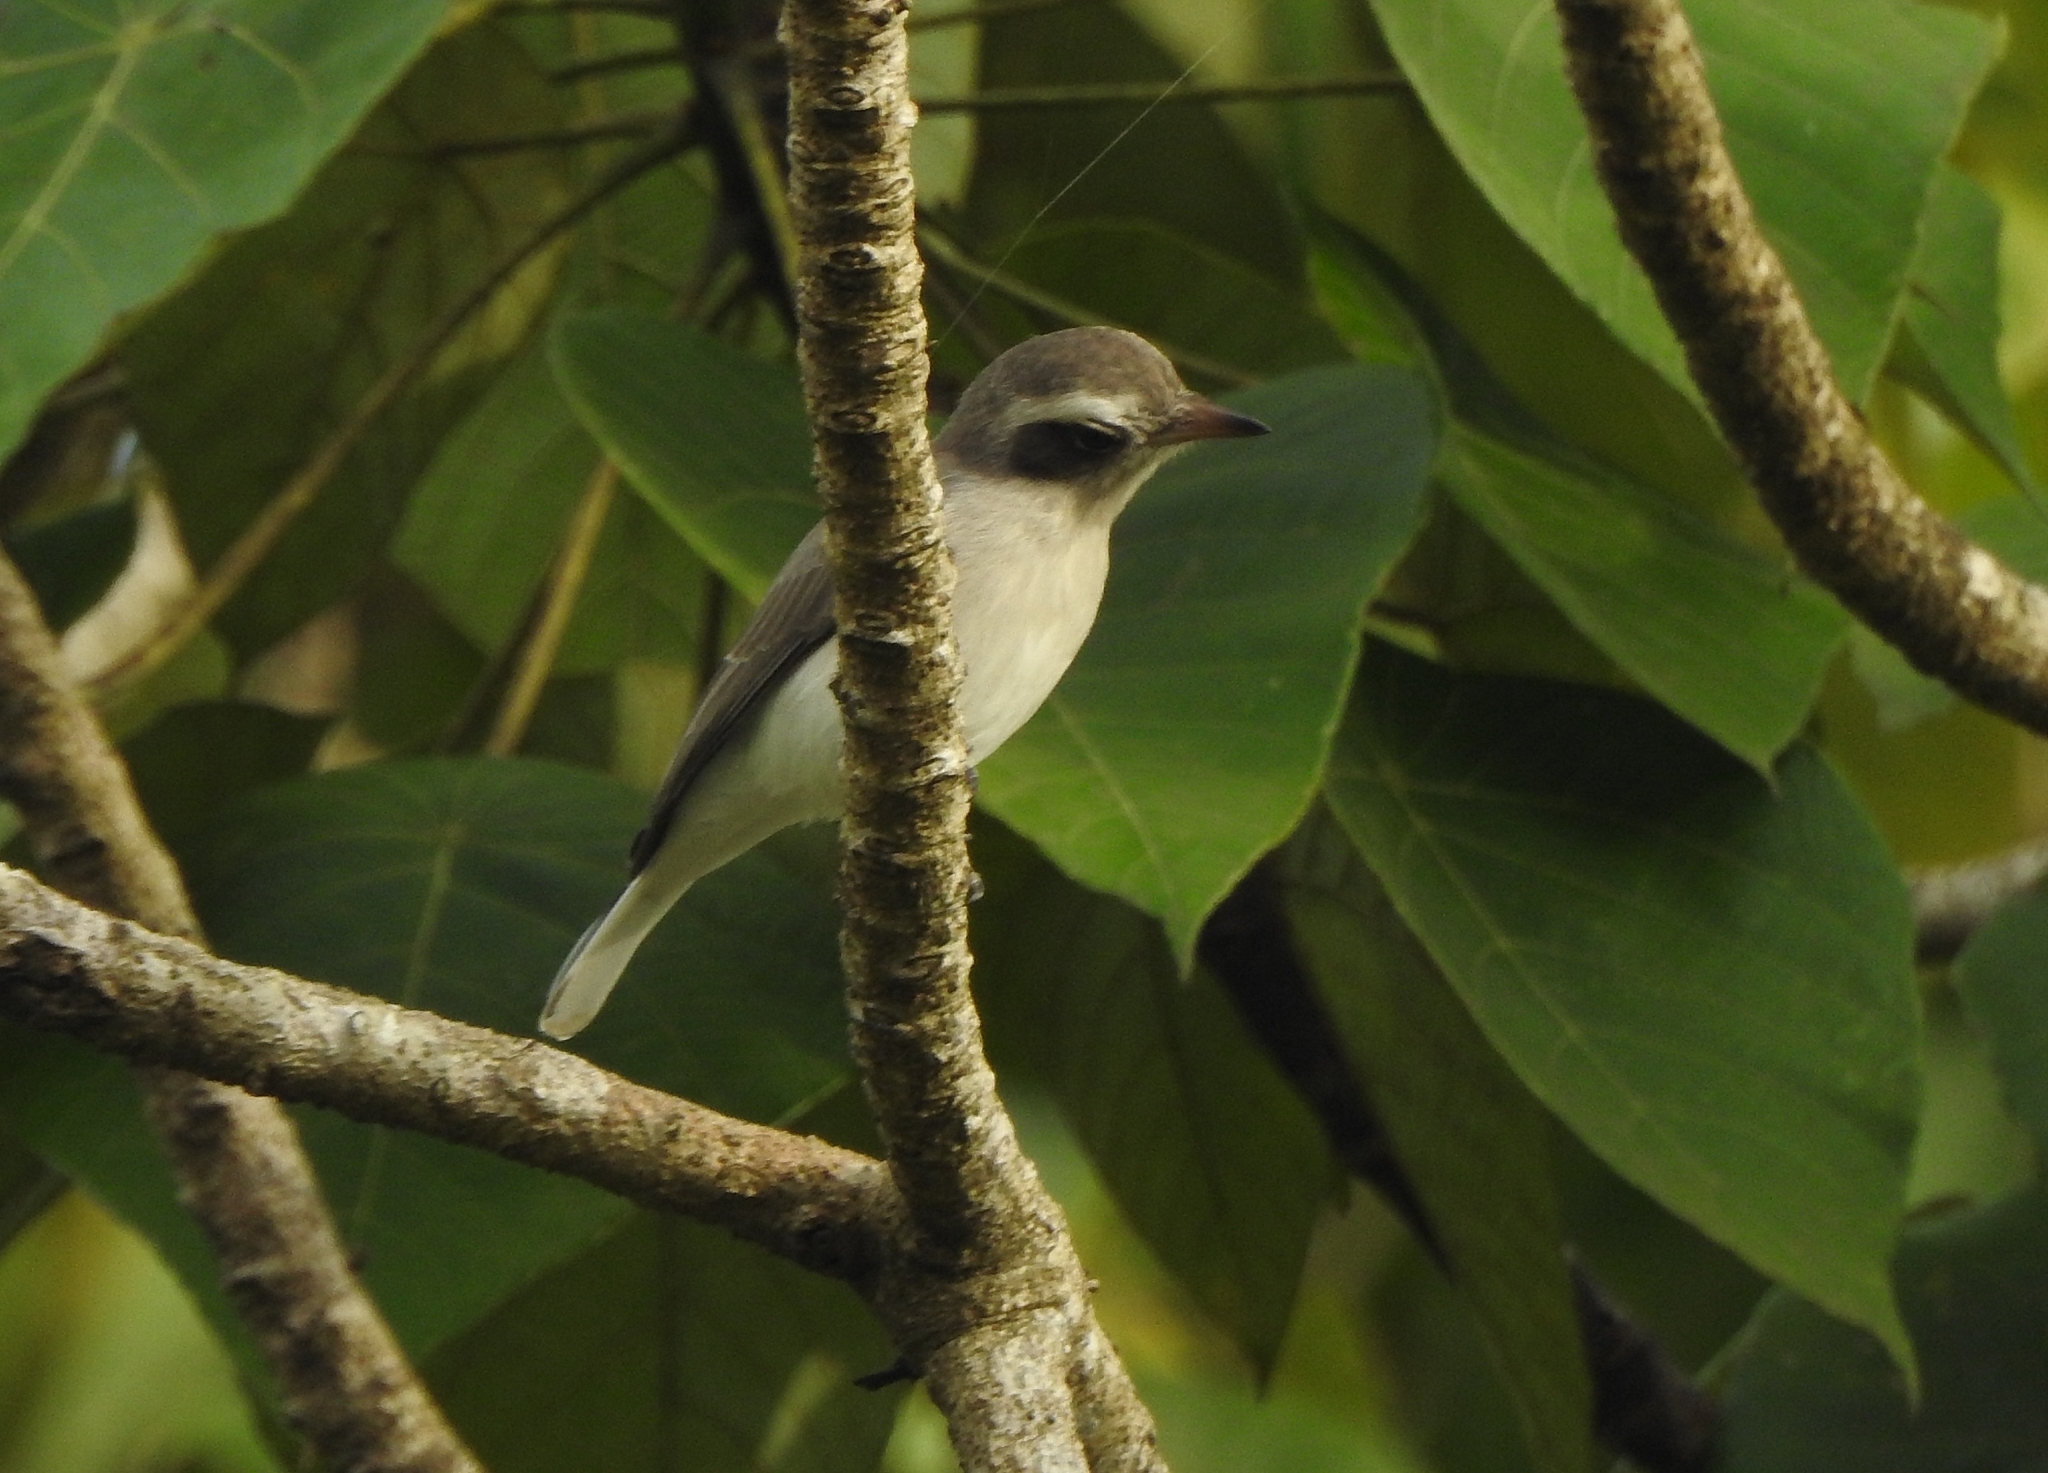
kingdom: Animalia
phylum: Chordata
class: Aves
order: Passeriformes
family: Tephrodornithidae
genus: Tephrodornis
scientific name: Tephrodornis pondicerianus
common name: Common woodshrike
